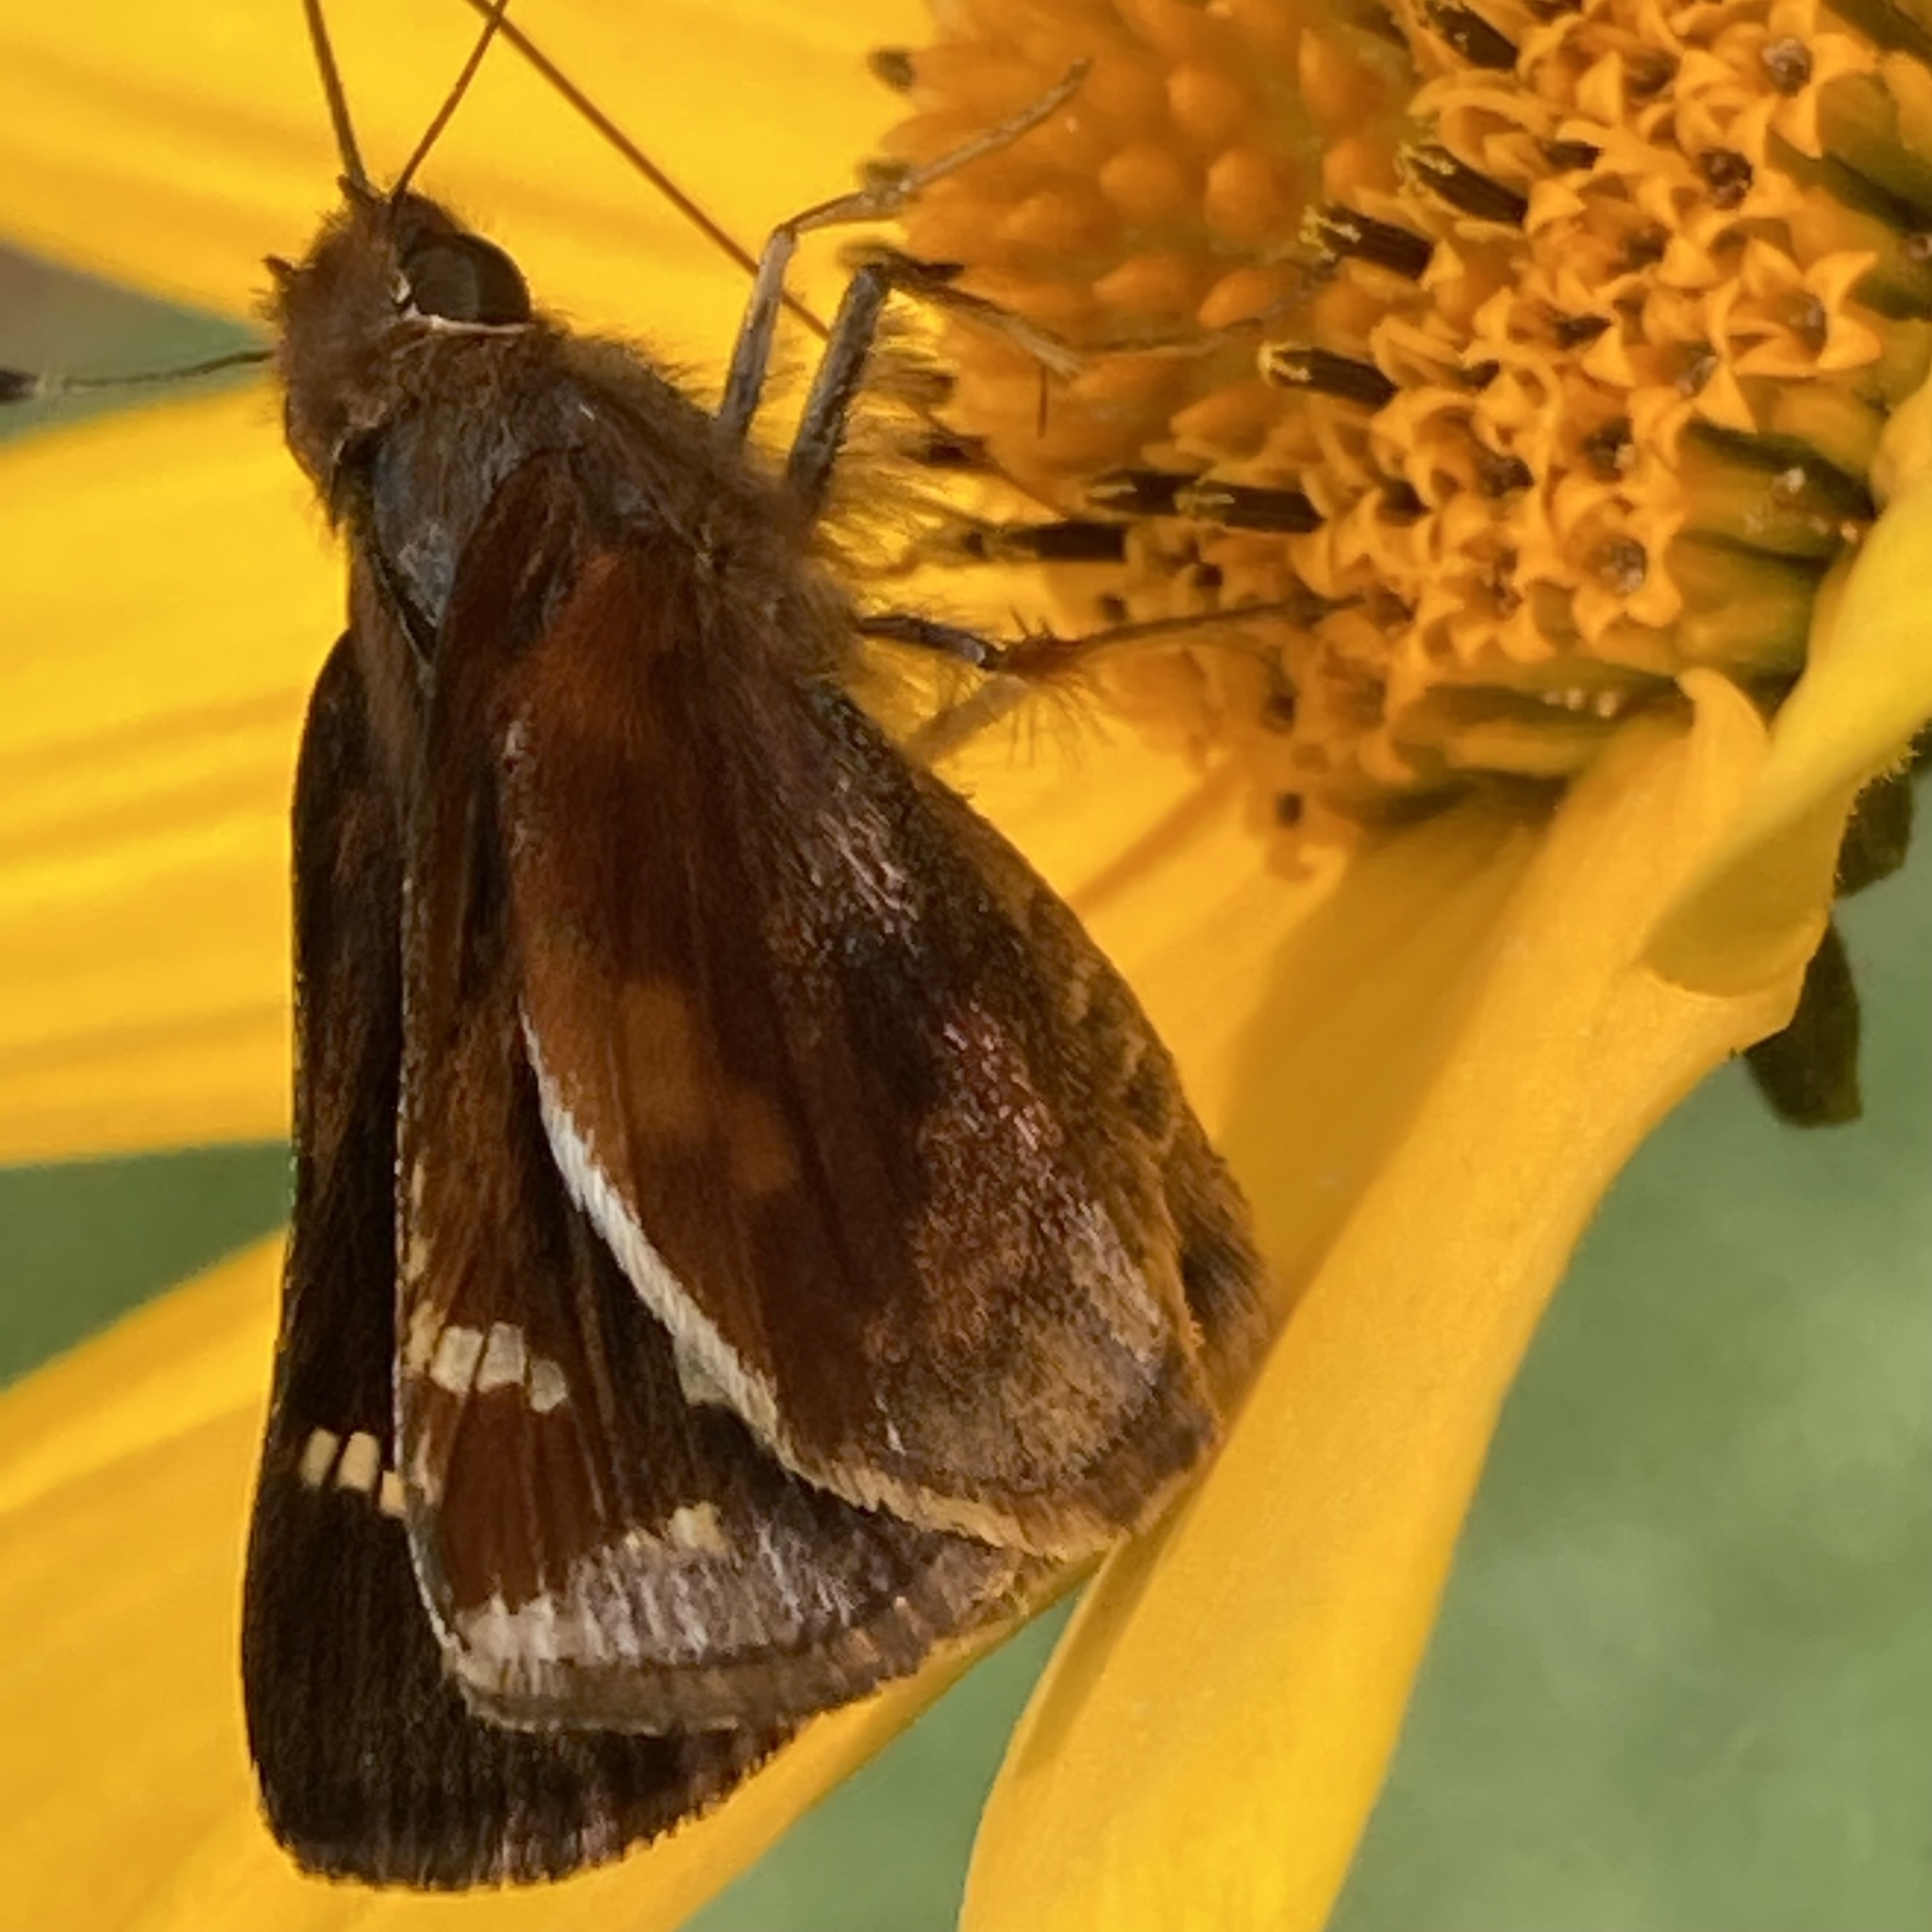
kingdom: Animalia
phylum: Arthropoda
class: Insecta
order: Lepidoptera
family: Hesperiidae
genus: Lon
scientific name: Lon zabulon
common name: Zabulon skipper
